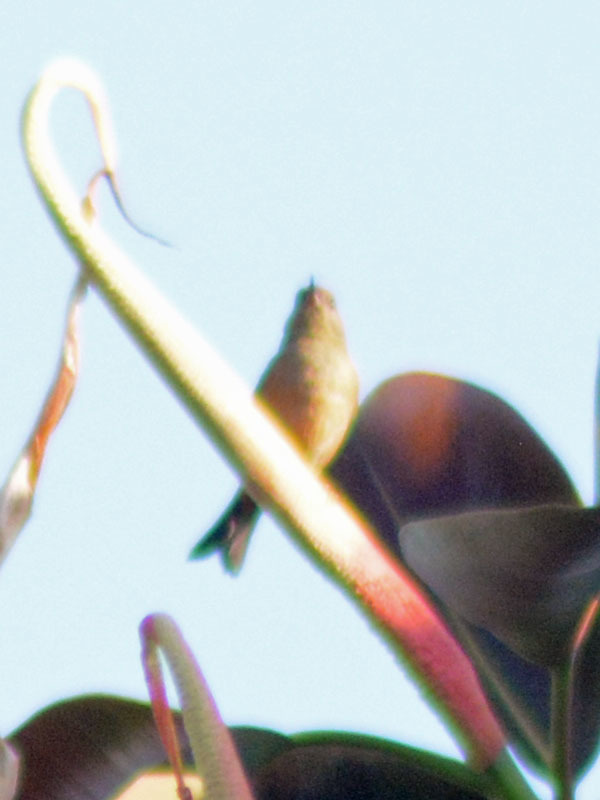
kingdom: Animalia
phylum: Chordata
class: Aves
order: Passeriformes
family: Thraupidae
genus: Diglossa
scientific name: Diglossa baritula
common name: Cinnamon-bellied flowerpiercer
